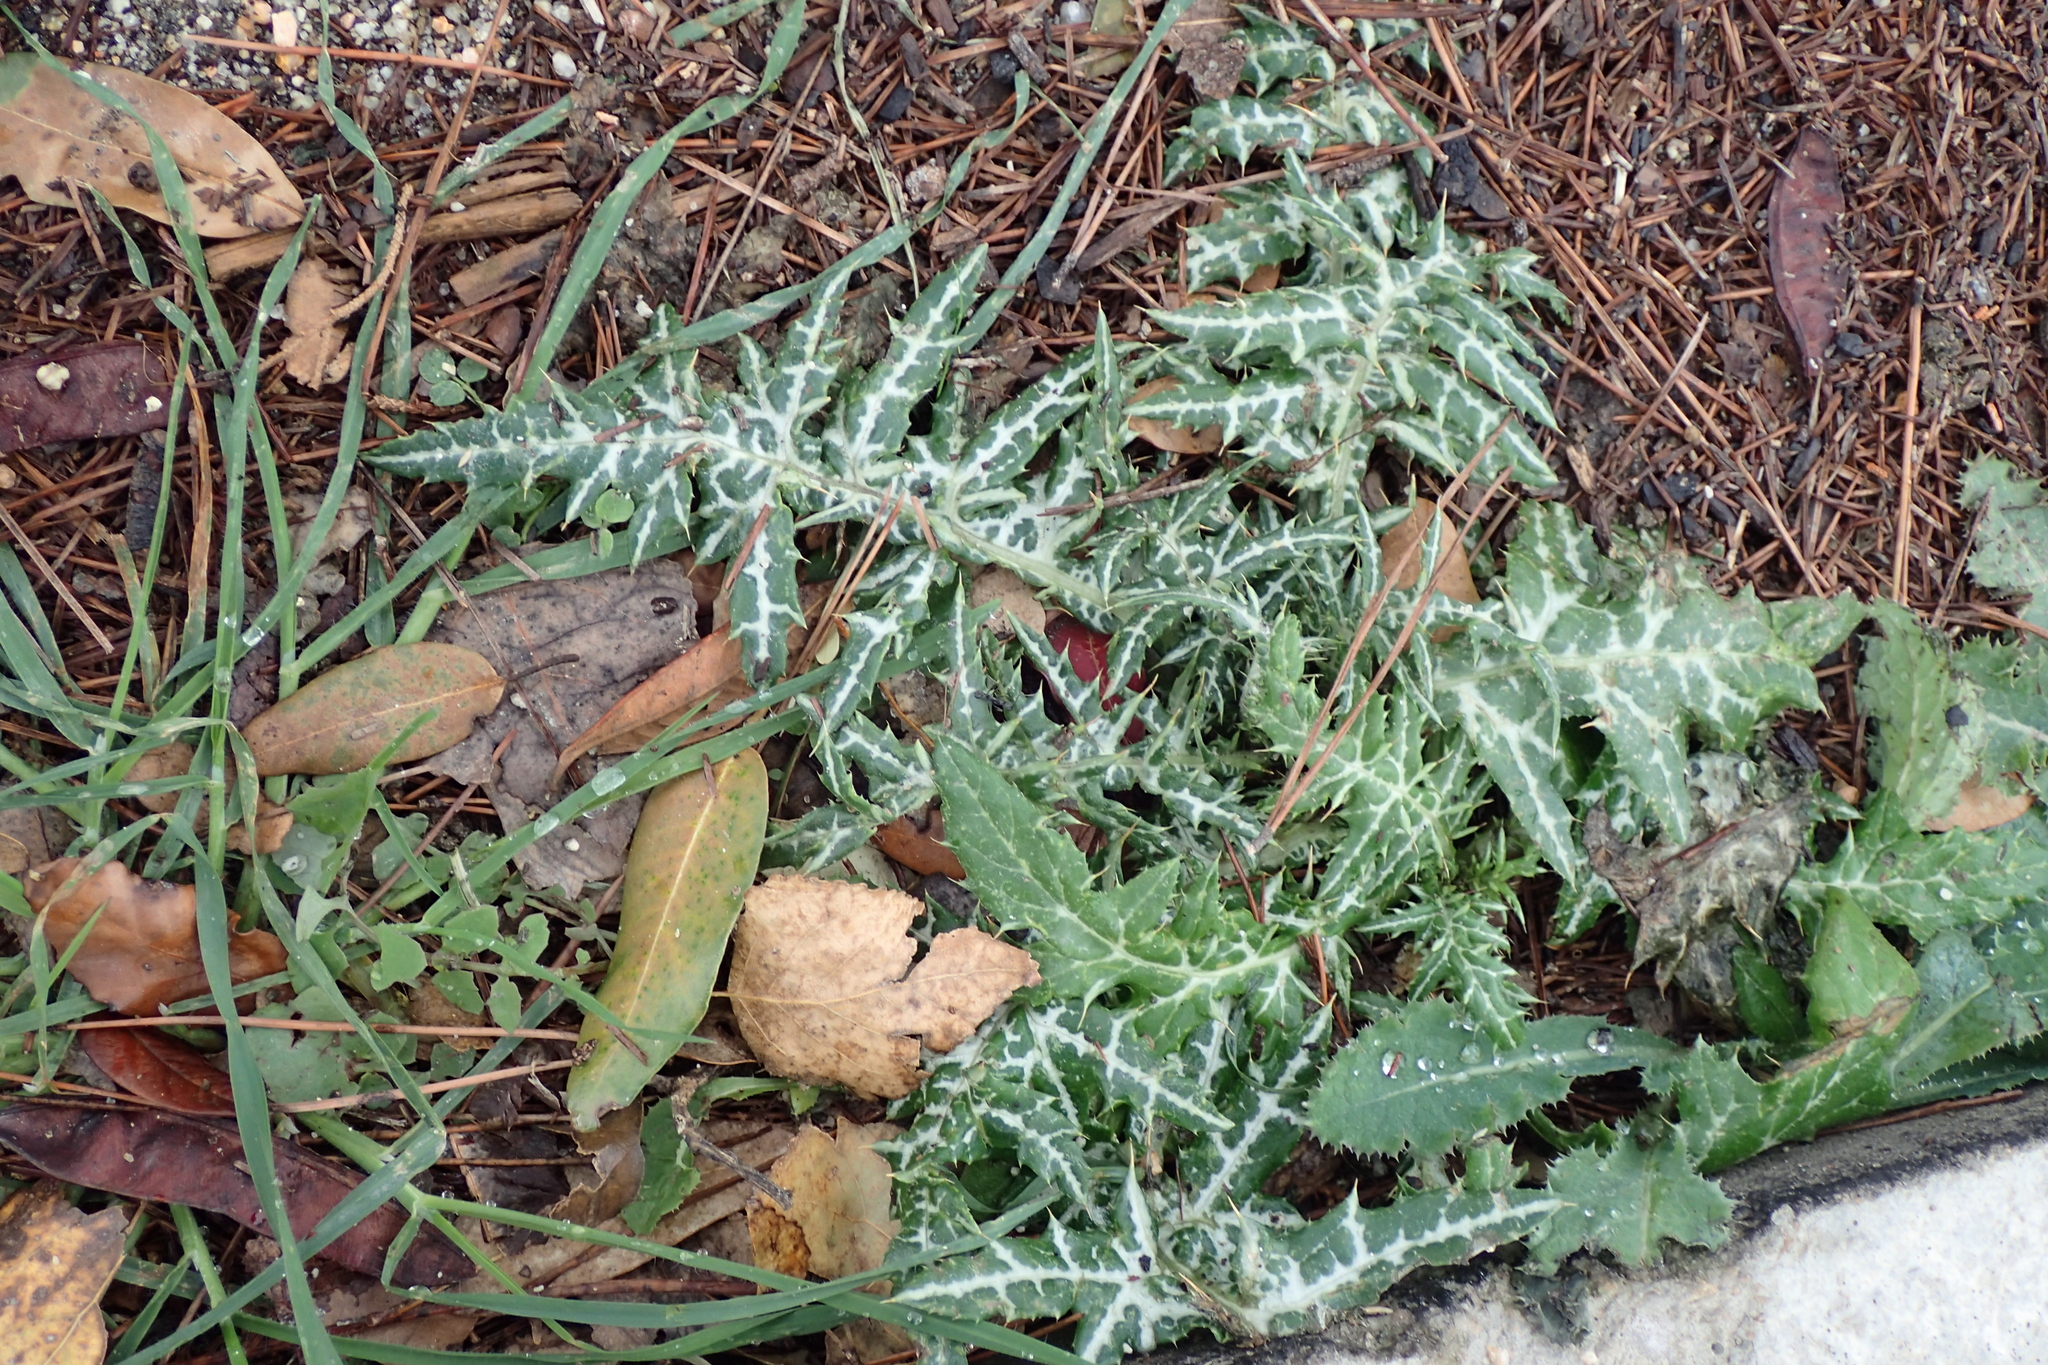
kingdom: Plantae
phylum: Tracheophyta
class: Magnoliopsida
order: Asterales
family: Asteraceae
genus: Galactites
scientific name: Galactites tomentosa
